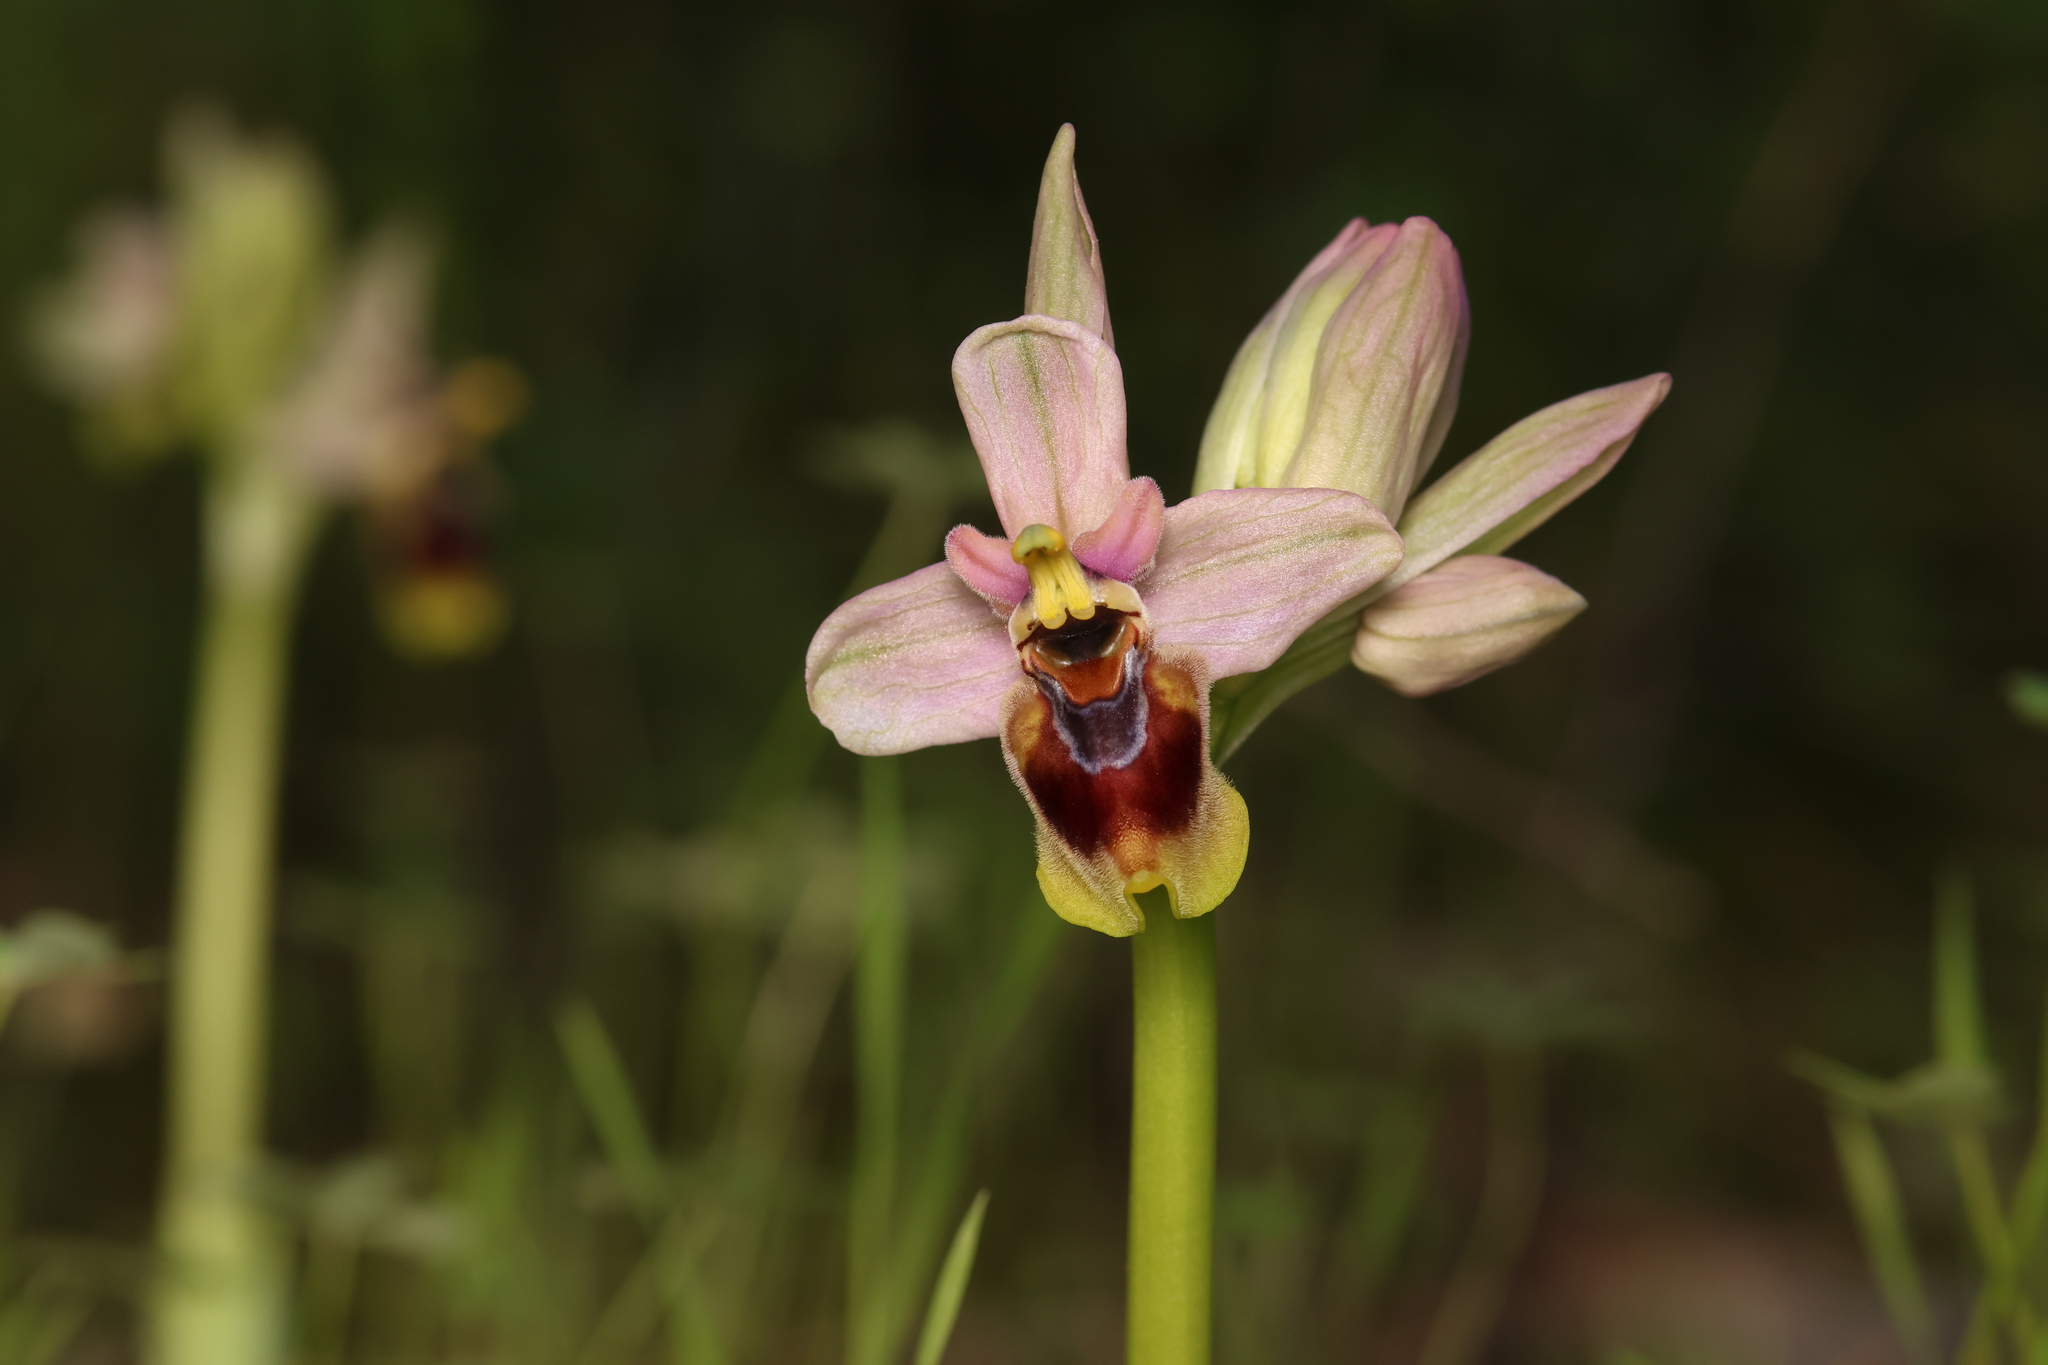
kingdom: Plantae
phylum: Tracheophyta
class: Liliopsida
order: Asparagales
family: Orchidaceae
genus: Ophrys
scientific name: Ophrys tenthredinifera
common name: Sawfly orchid
